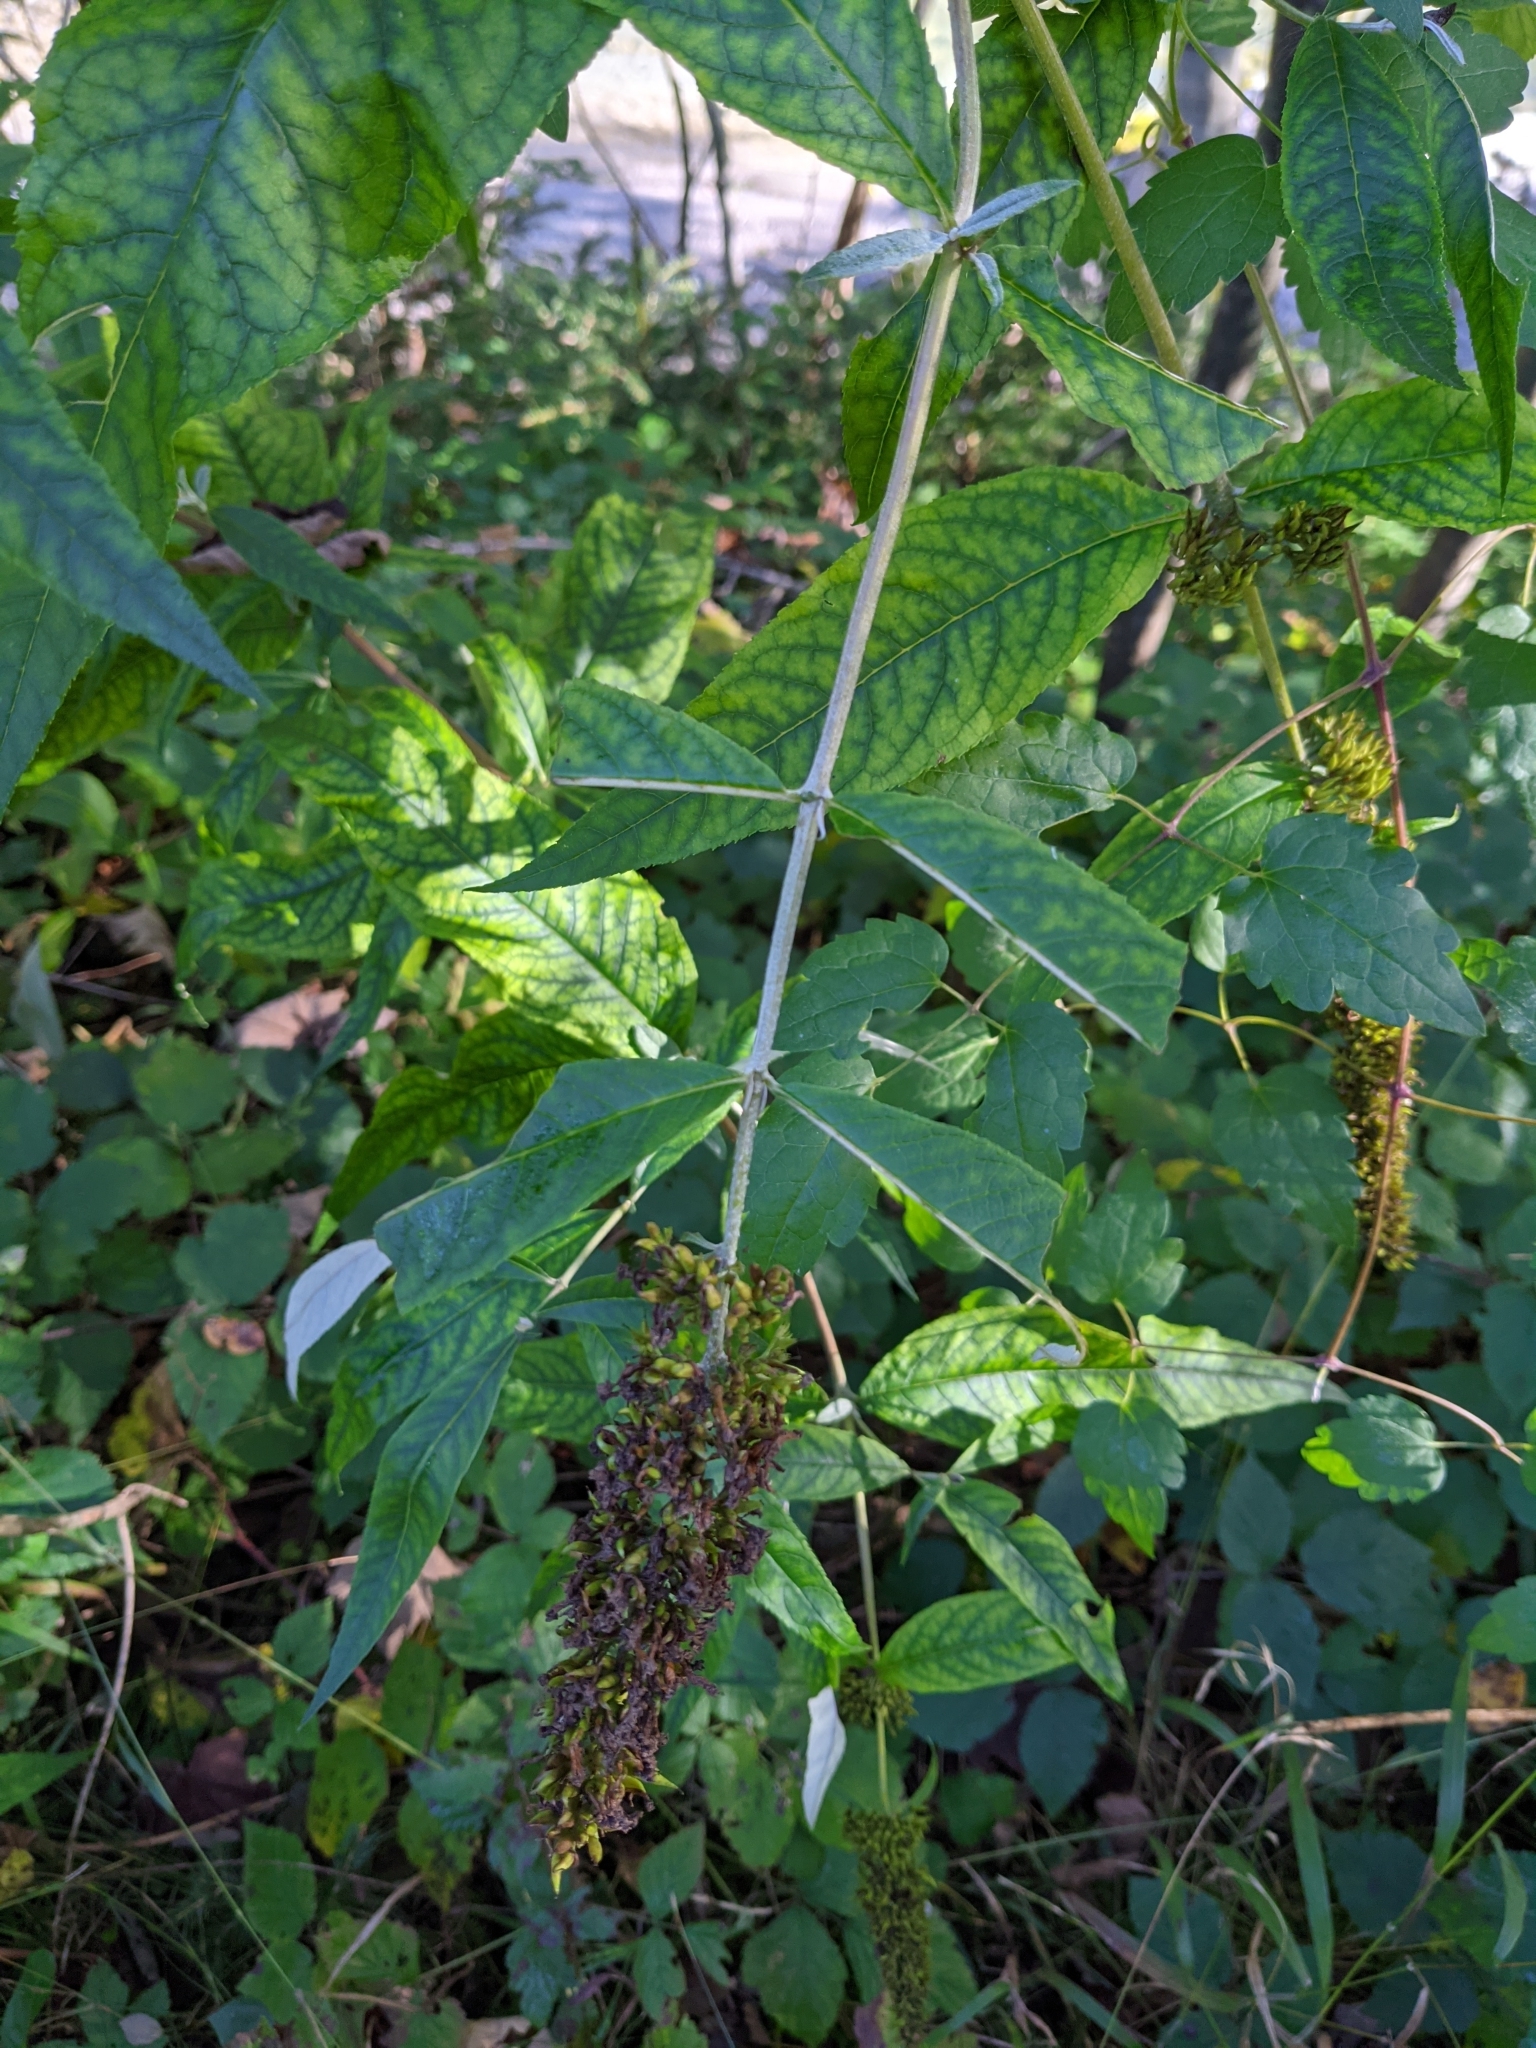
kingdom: Plantae
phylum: Tracheophyta
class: Magnoliopsida
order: Lamiales
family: Scrophulariaceae
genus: Buddleja
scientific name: Buddleja davidii
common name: Butterfly-bush
